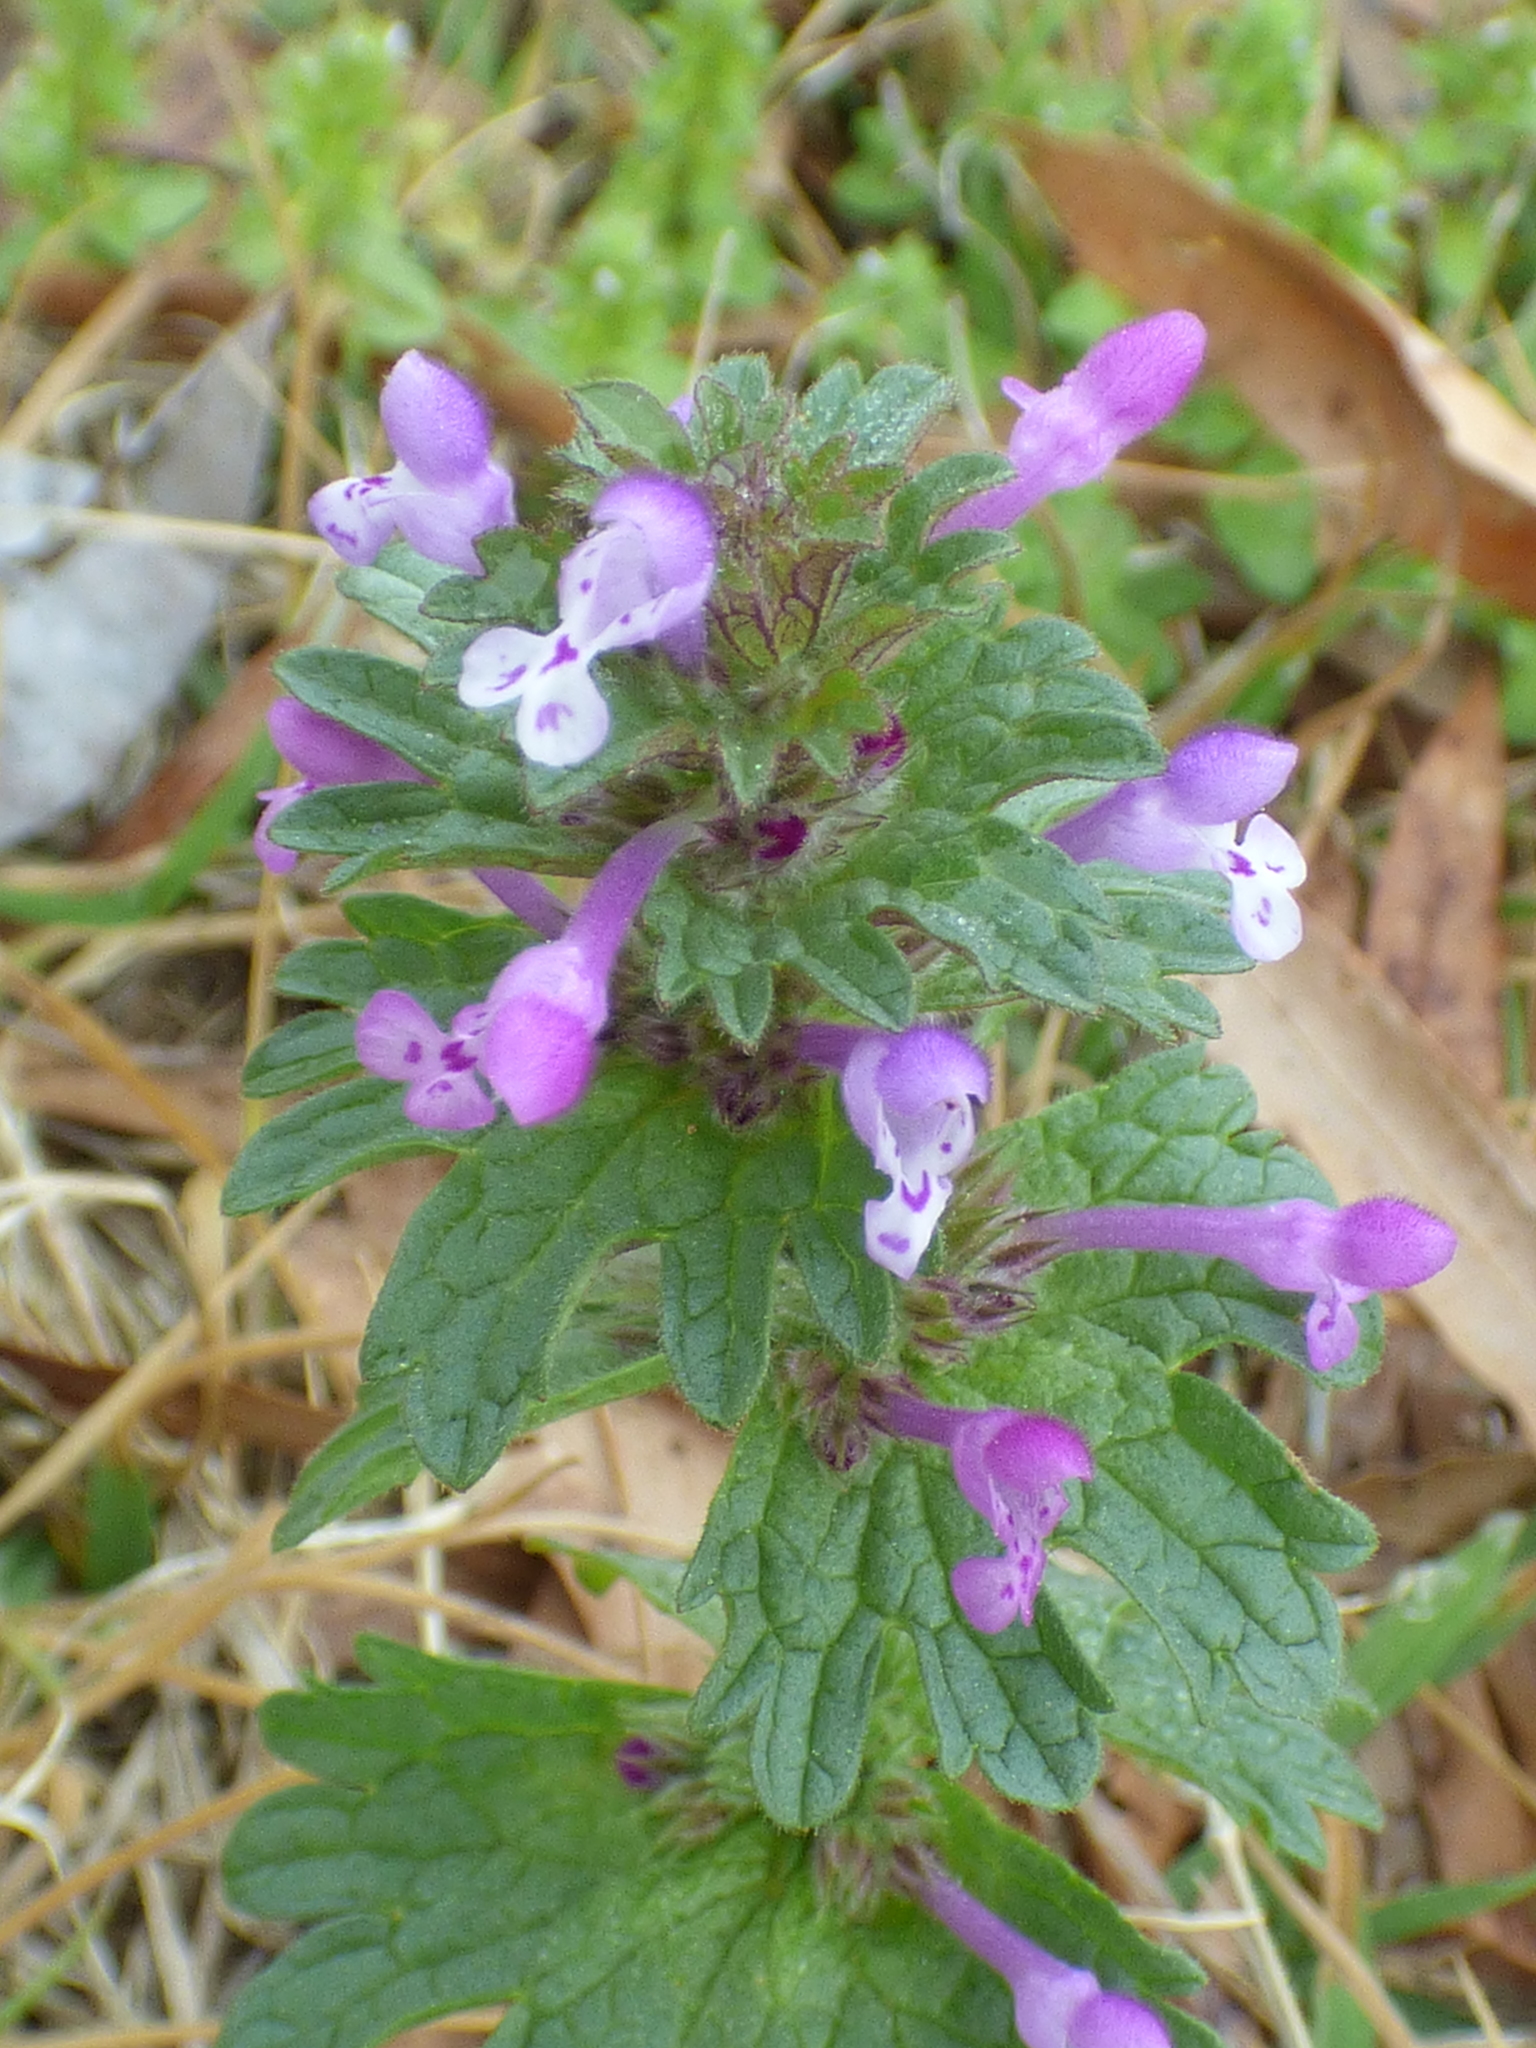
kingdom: Plantae
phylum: Tracheophyta
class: Magnoliopsida
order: Lamiales
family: Lamiaceae
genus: Lamium
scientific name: Lamium amplexicaule
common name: Henbit dead-nettle
